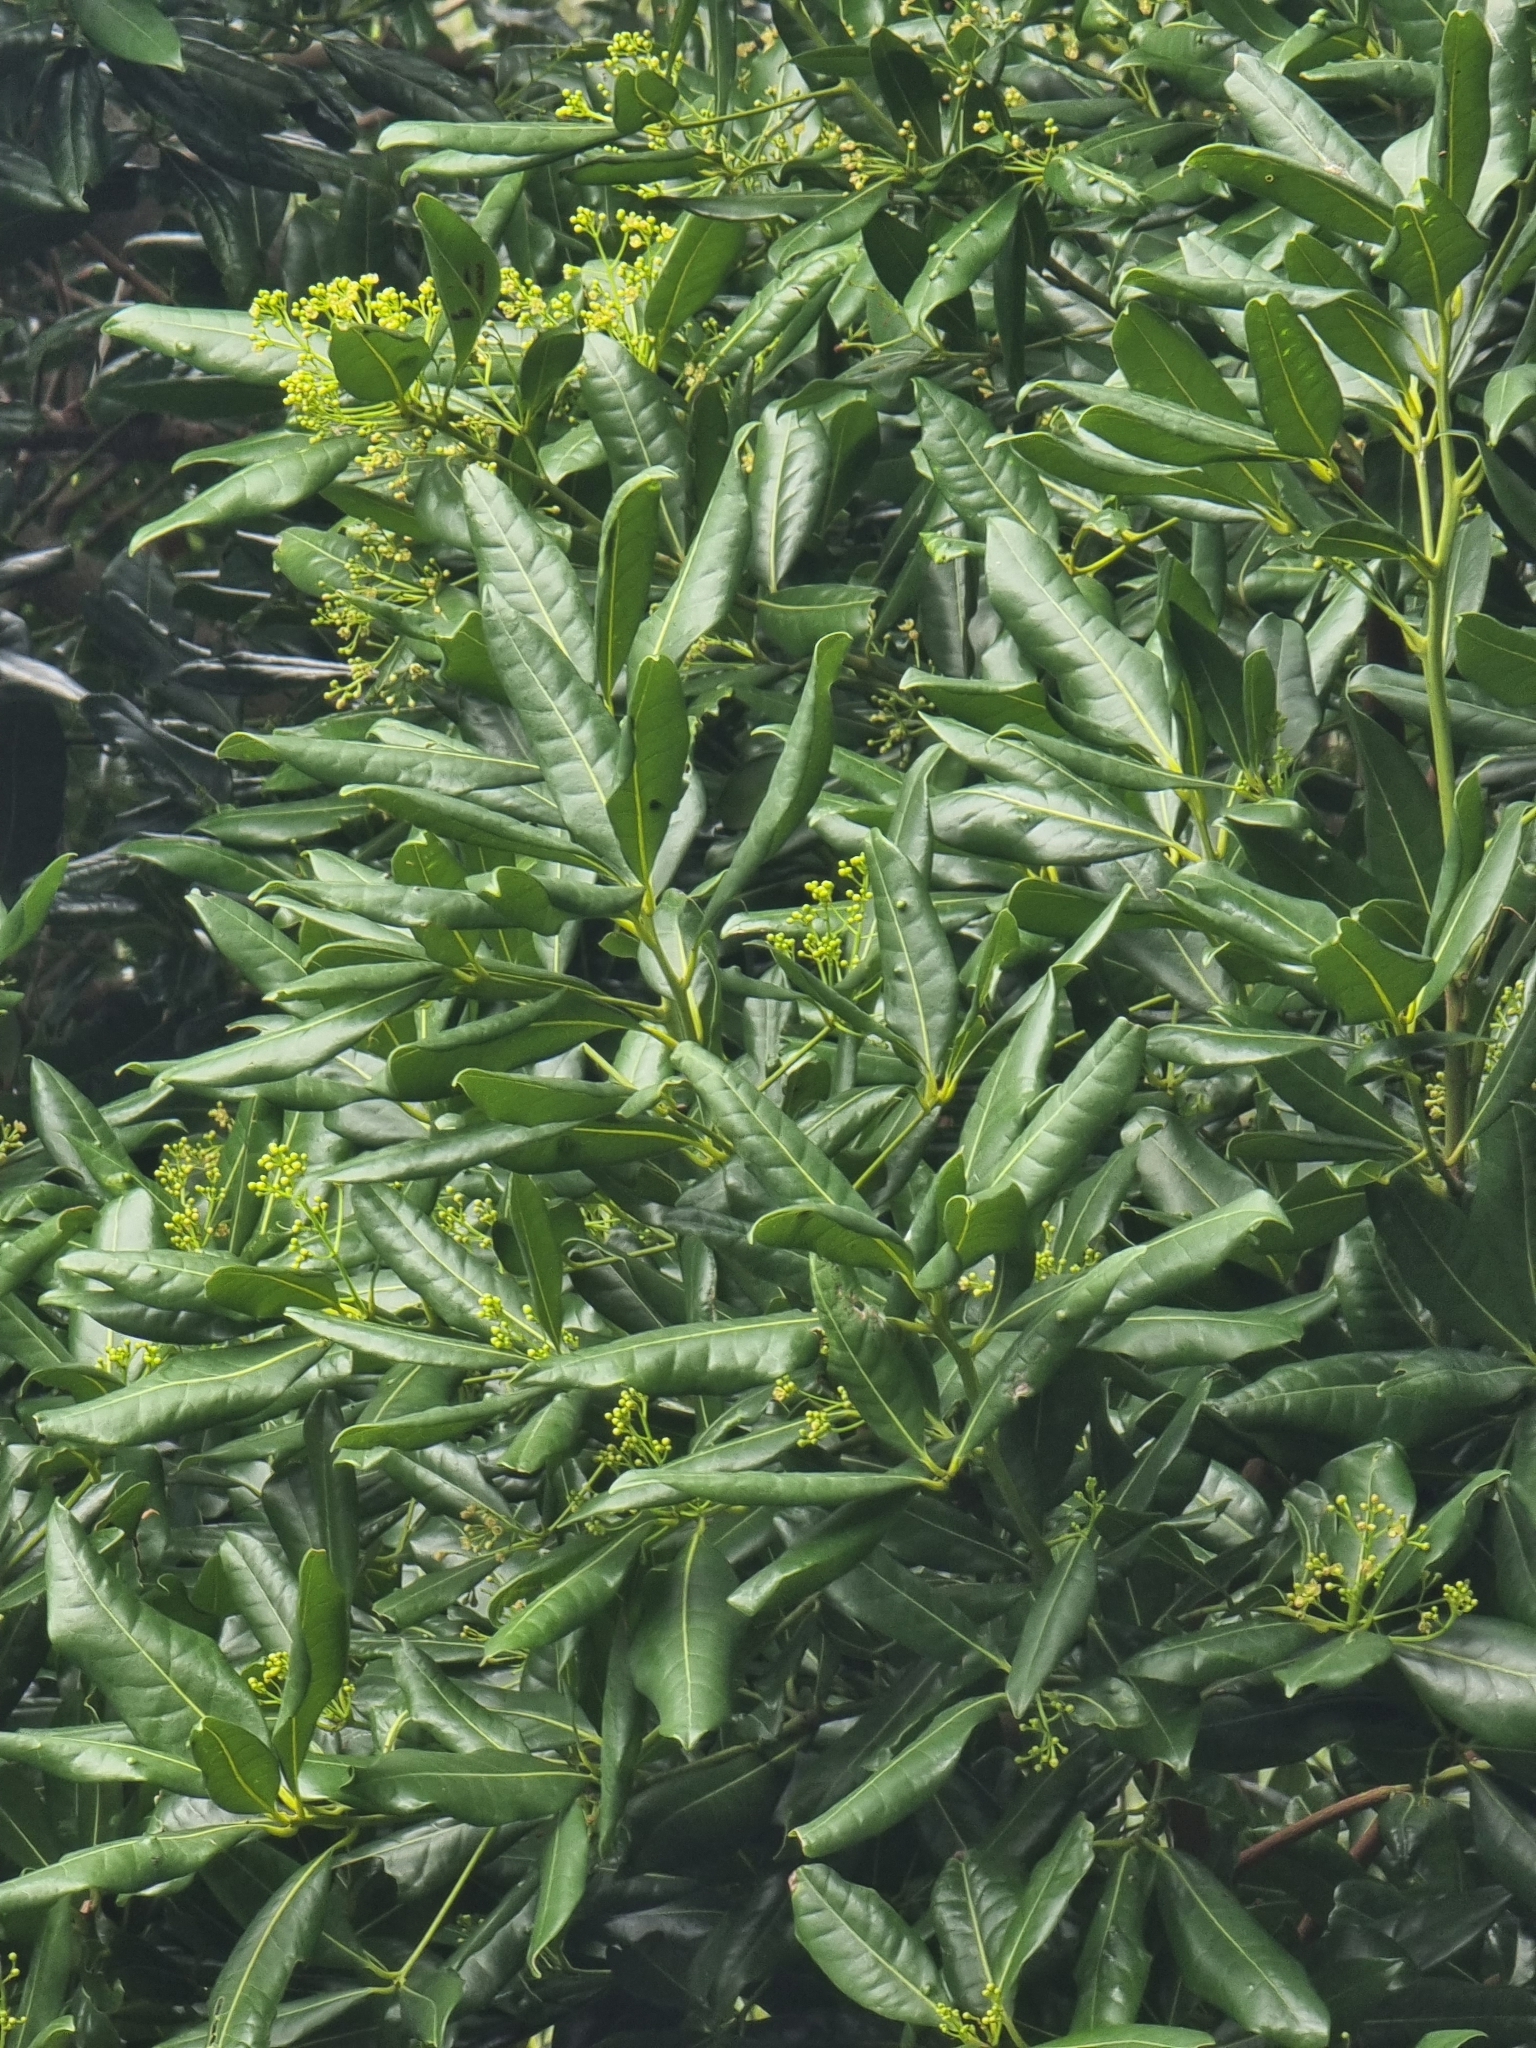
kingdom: Plantae
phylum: Tracheophyta
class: Magnoliopsida
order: Laurales
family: Lauraceae
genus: Apollonias
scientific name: Apollonias barbujana
